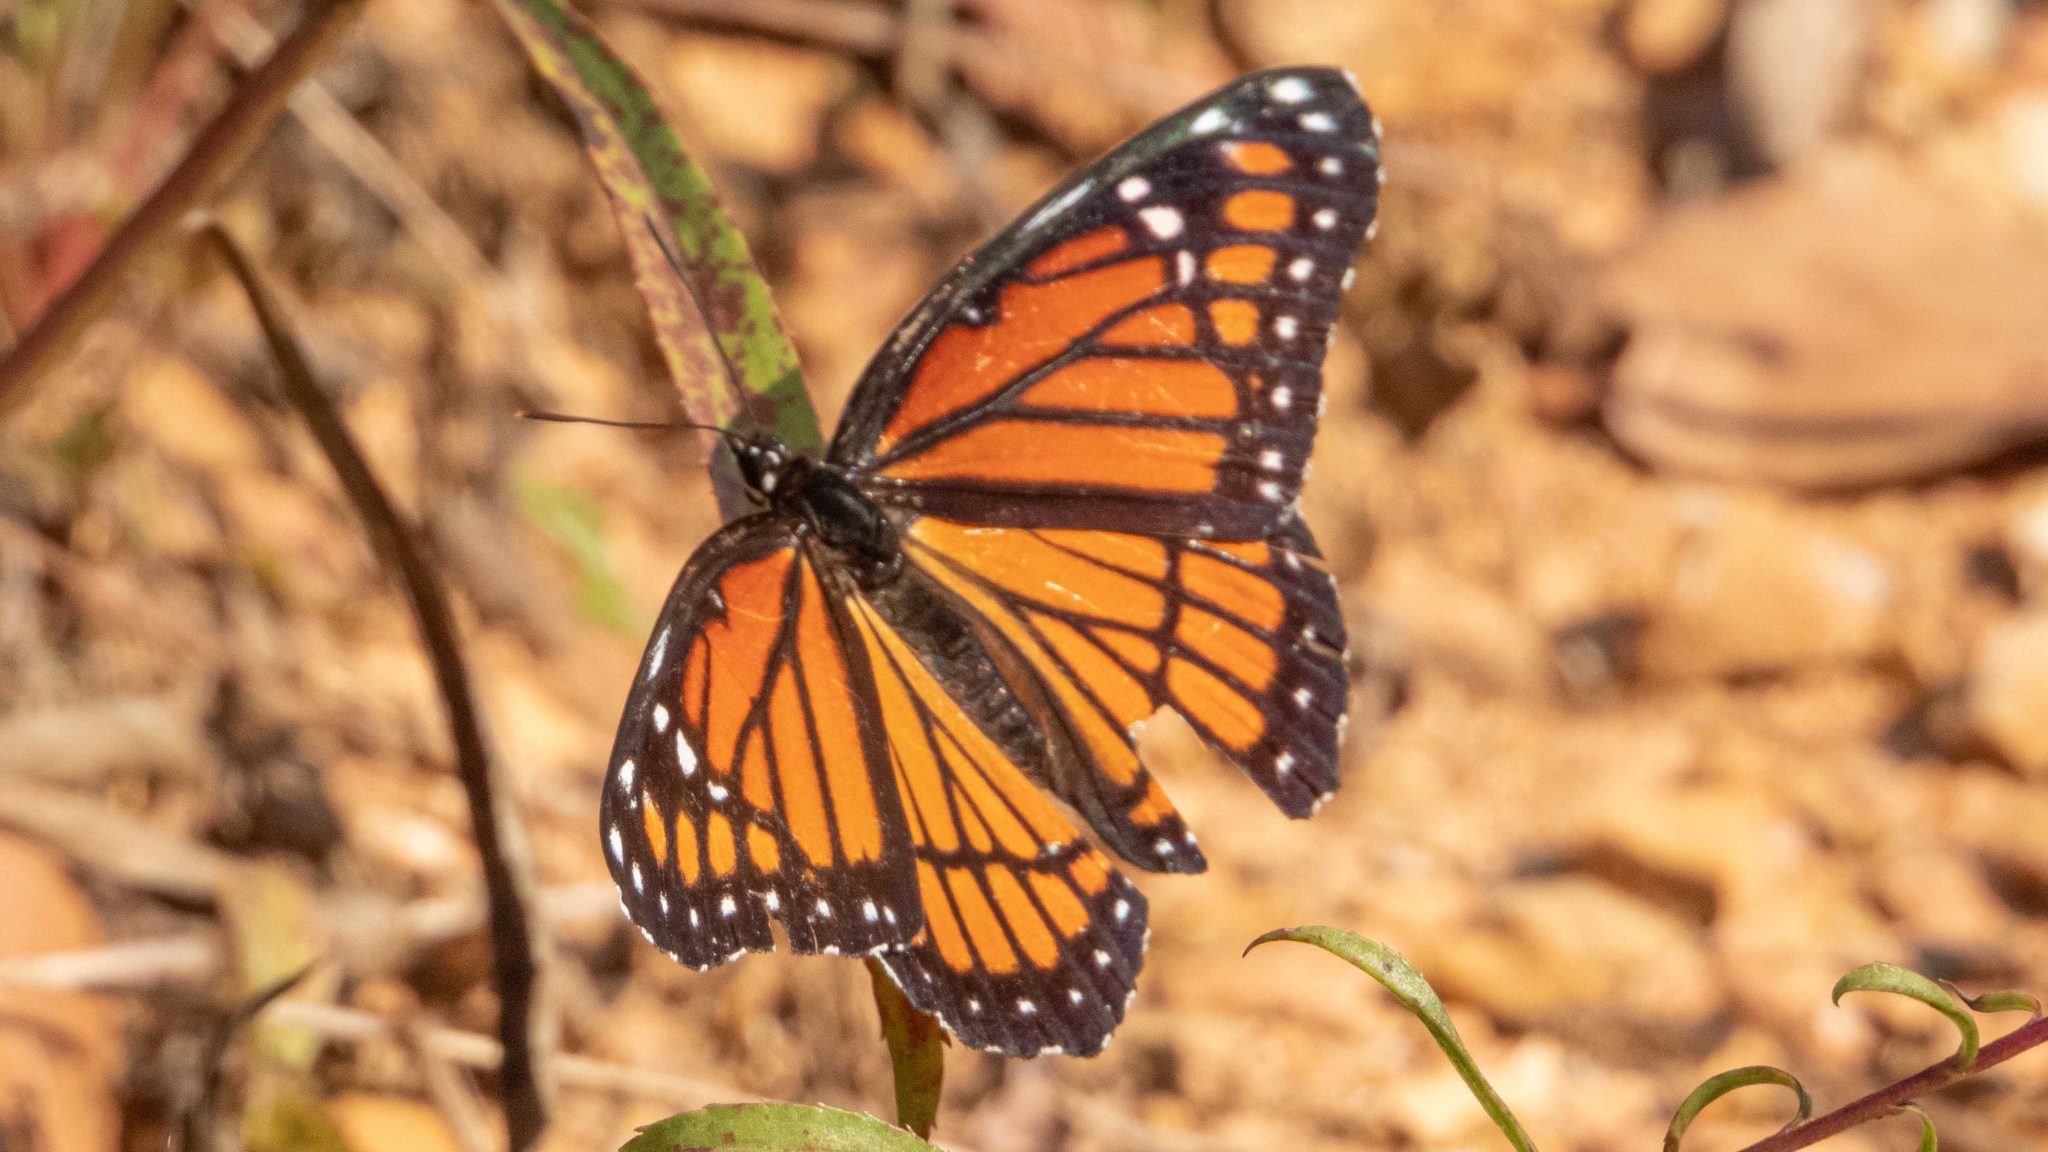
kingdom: Animalia
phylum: Arthropoda
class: Insecta
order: Lepidoptera
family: Nymphalidae
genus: Limenitis
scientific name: Limenitis archippus
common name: Viceroy
